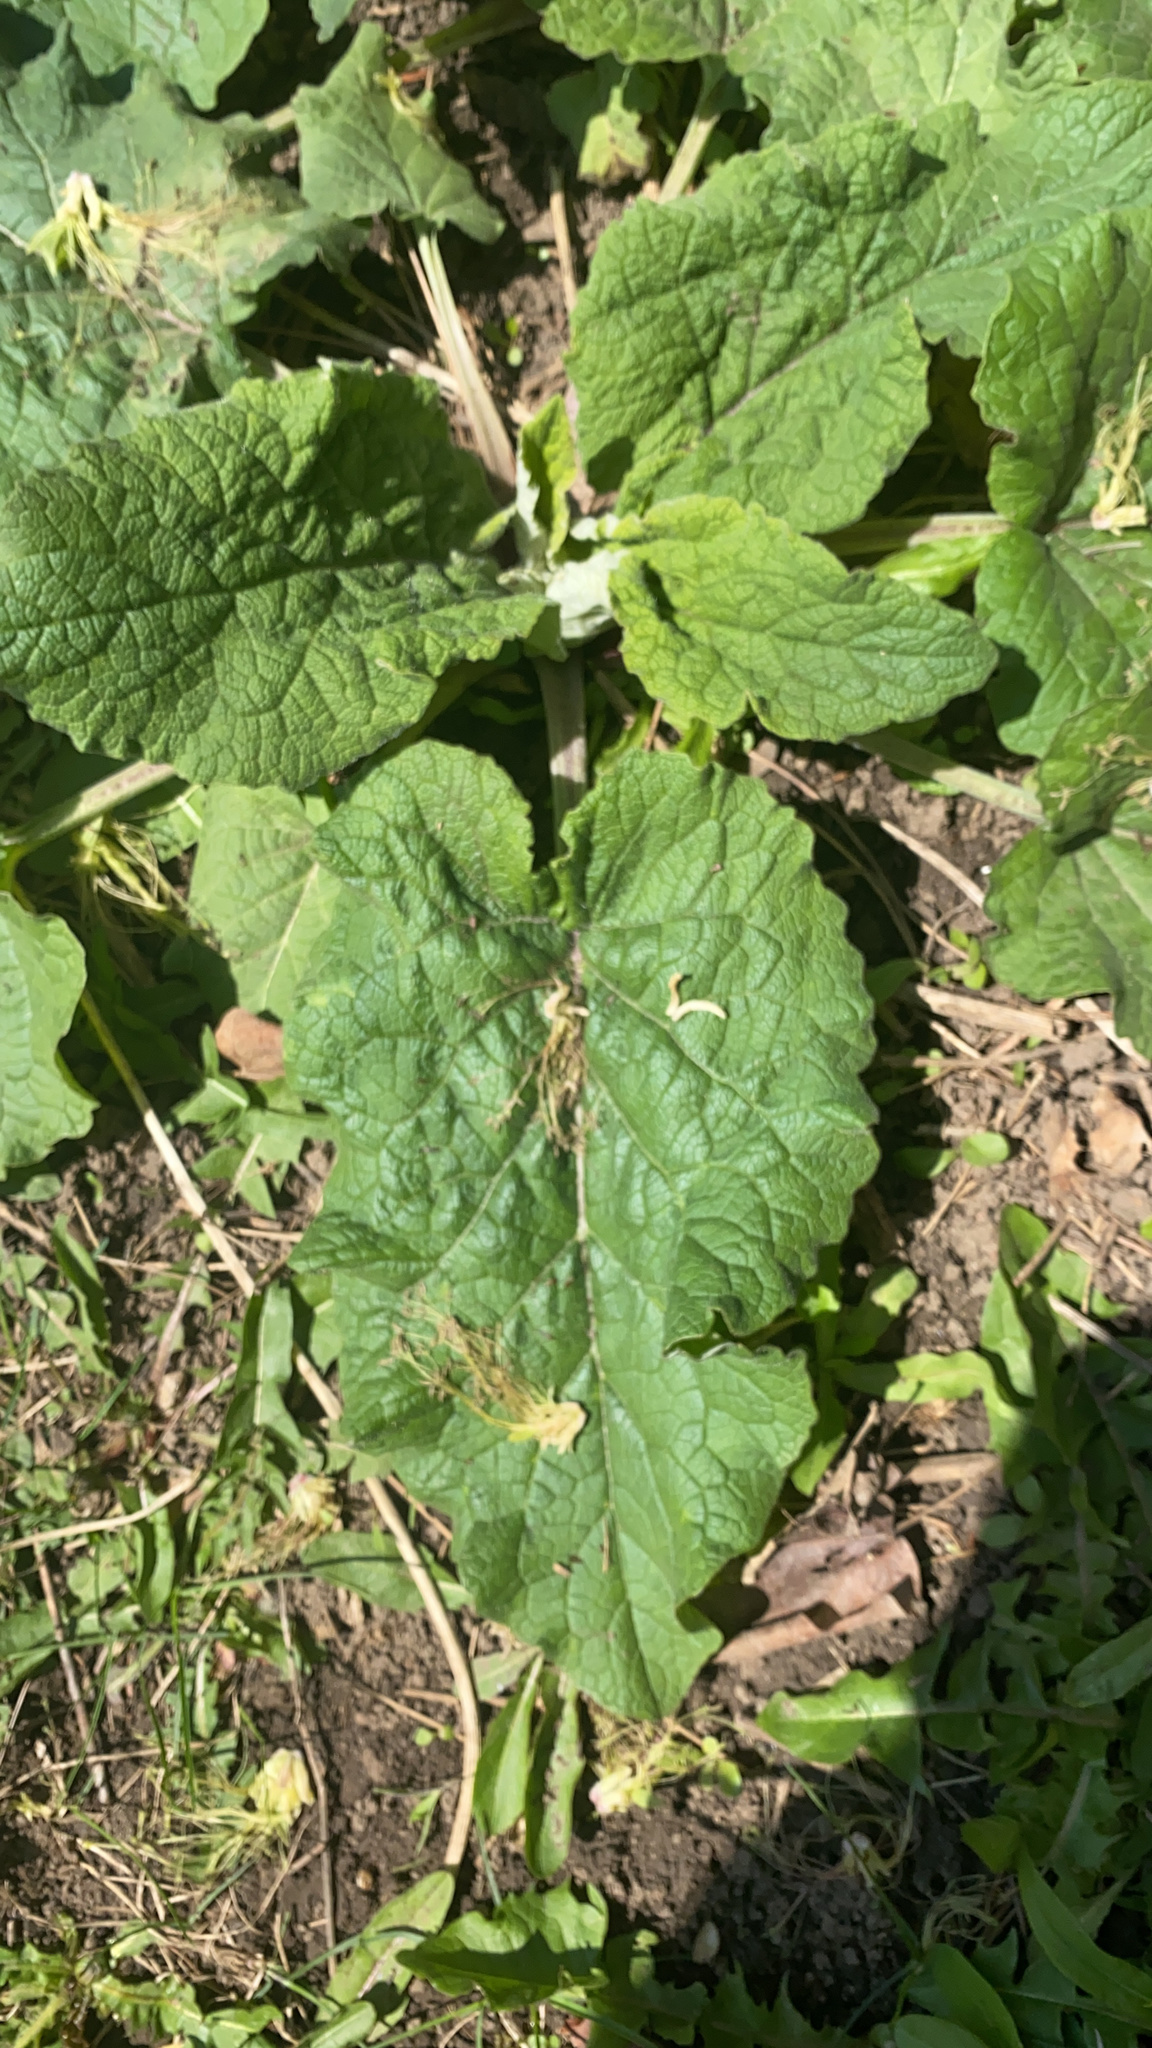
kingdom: Plantae
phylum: Tracheophyta
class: Magnoliopsida
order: Asterales
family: Asteraceae
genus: Arctium
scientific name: Arctium
